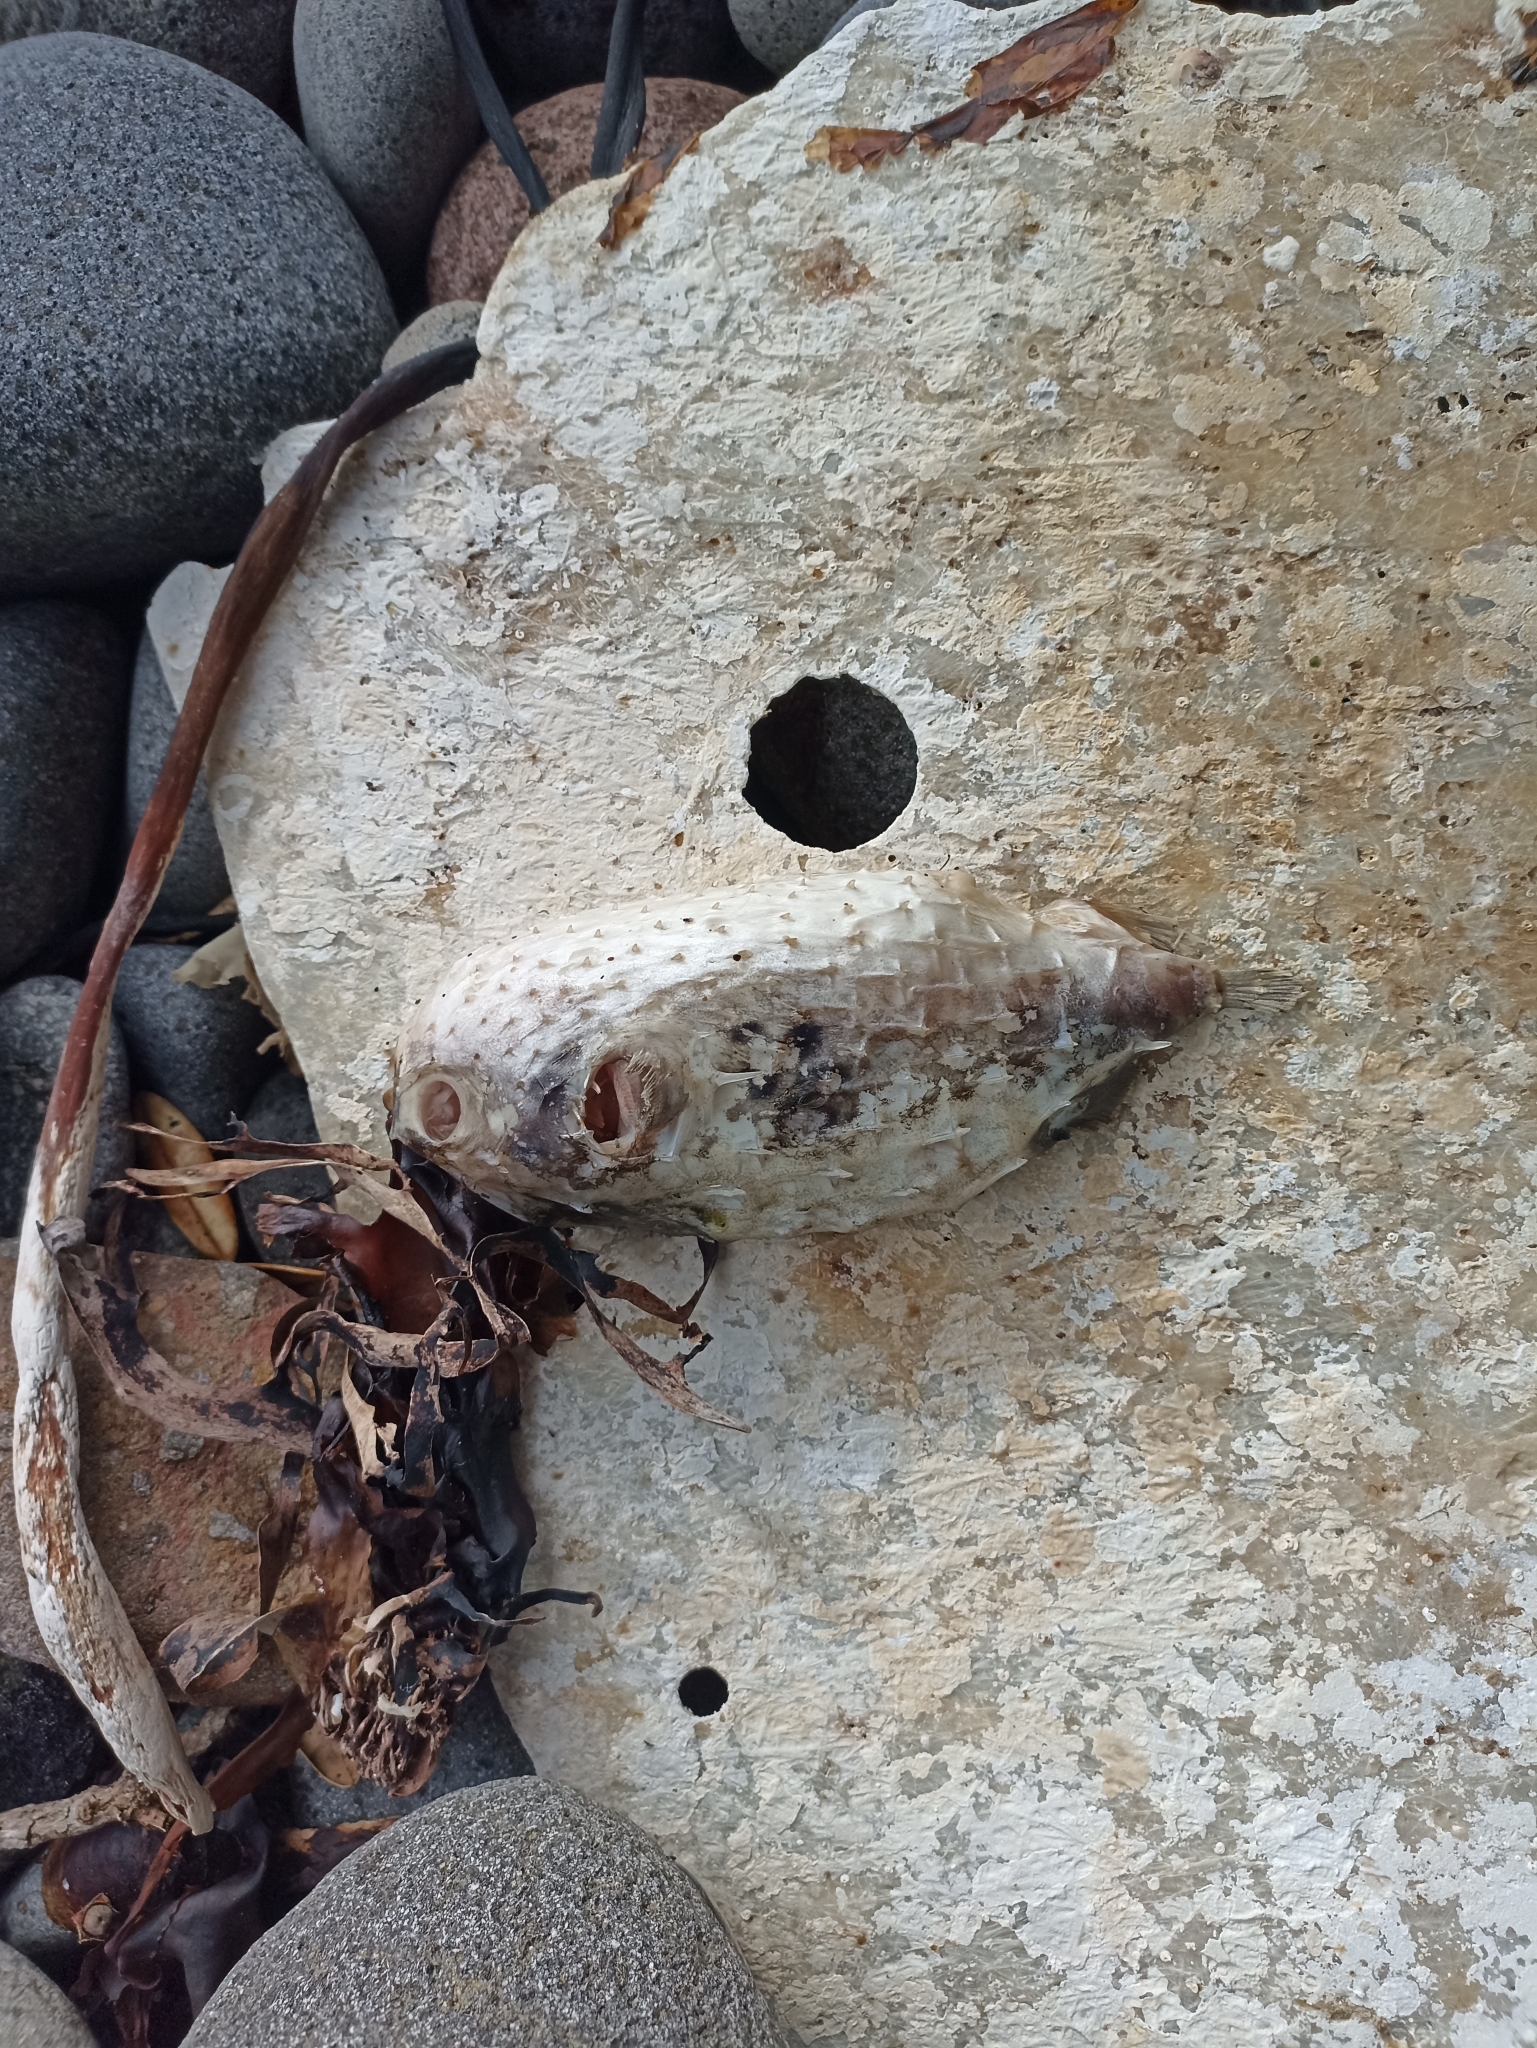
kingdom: Animalia
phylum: Chordata
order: Tetraodontiformes
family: Diodontidae
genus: Allomycterus
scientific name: Allomycterus pilatus
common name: No common name
